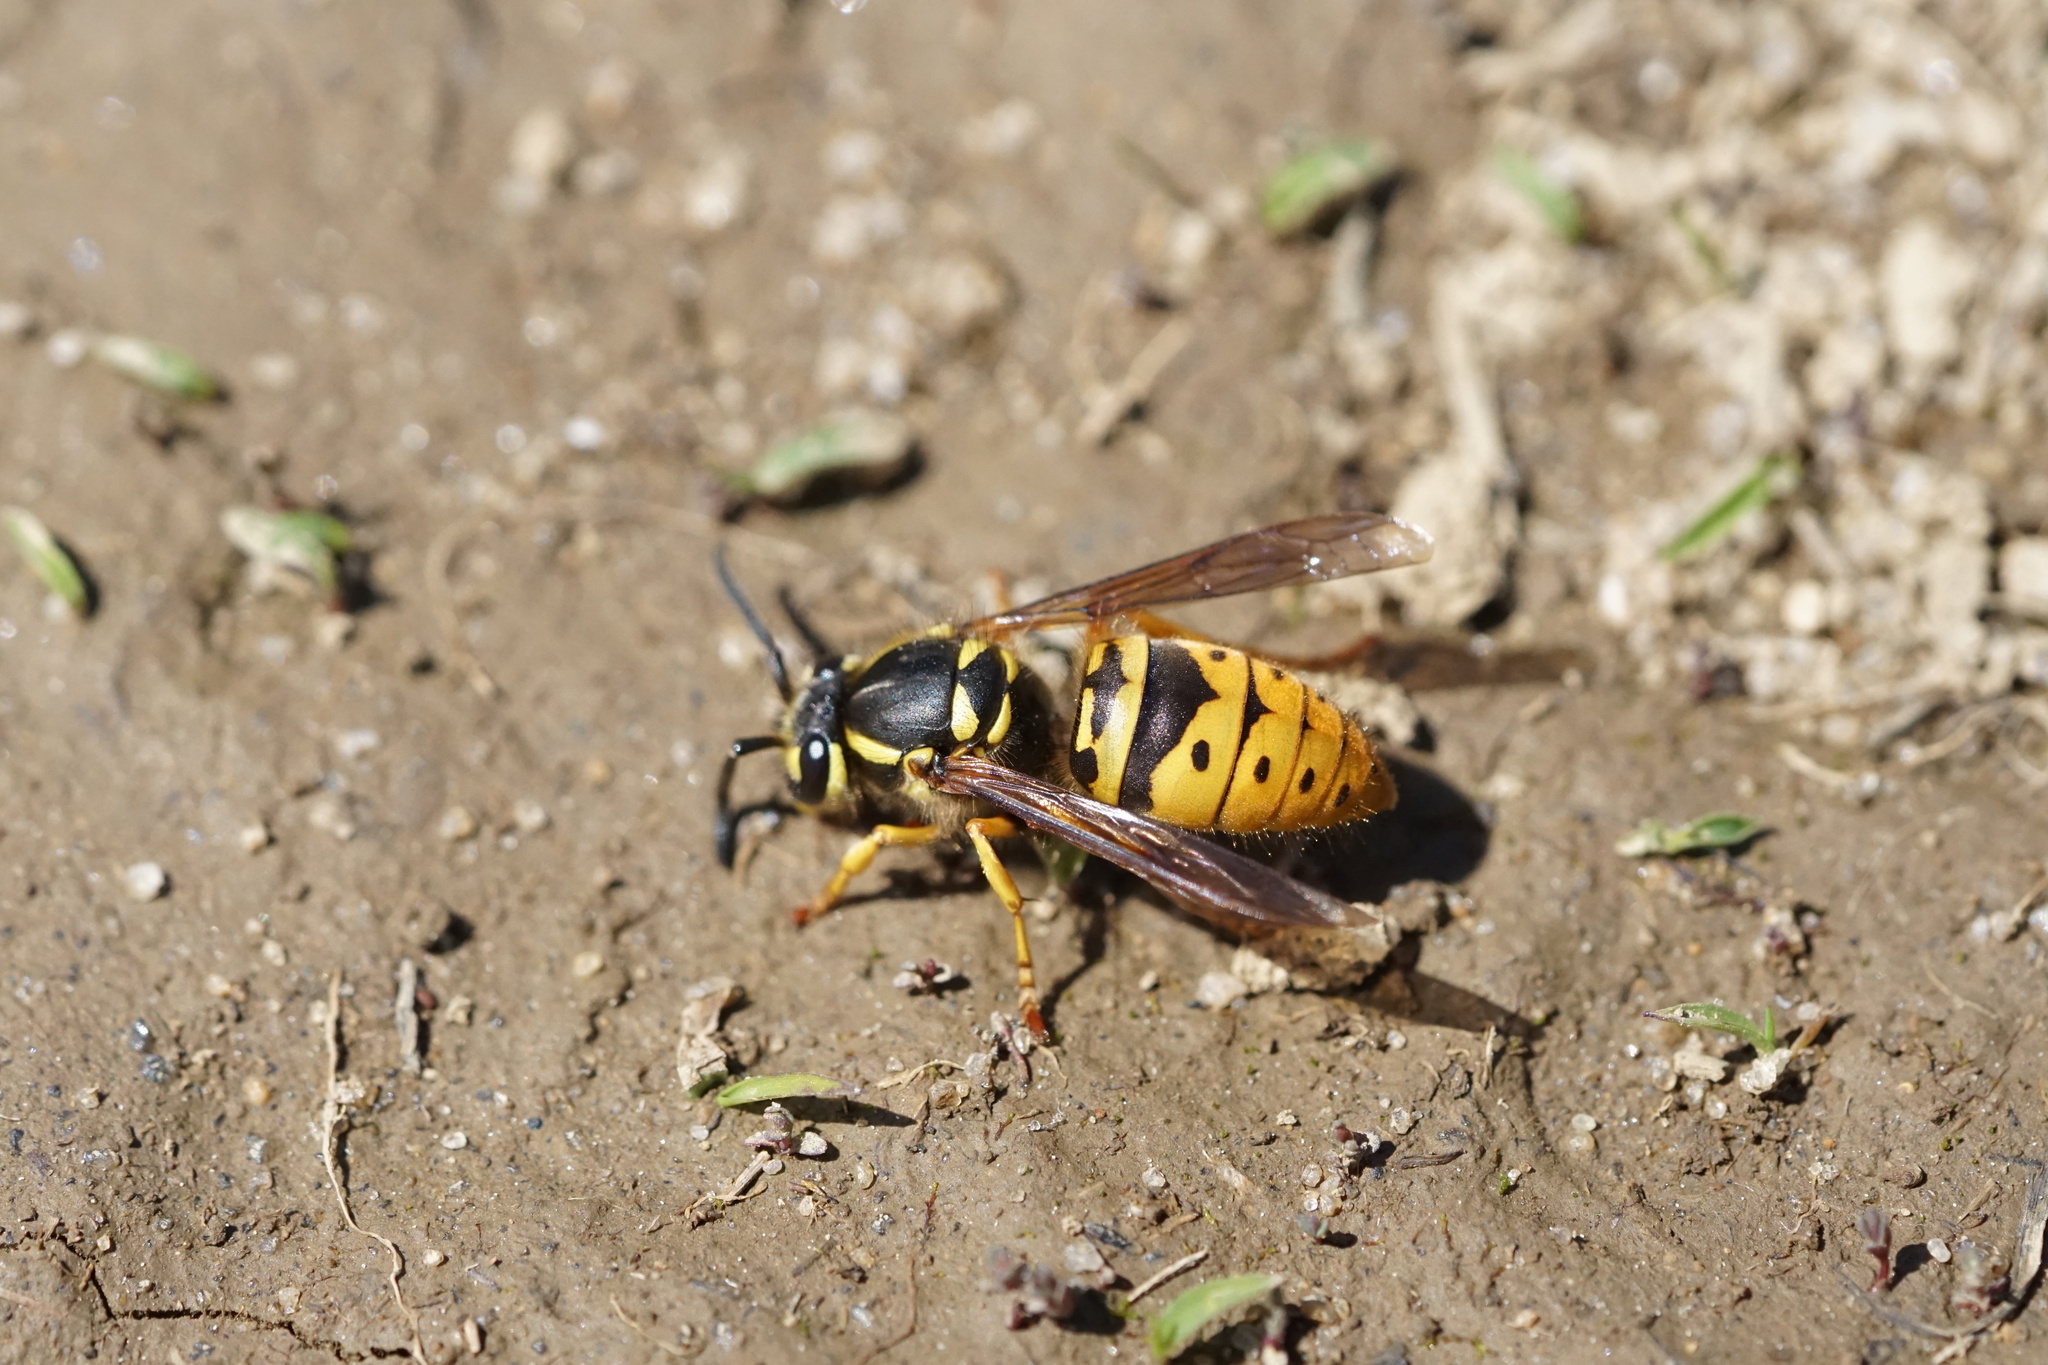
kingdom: Animalia
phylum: Arthropoda
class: Insecta
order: Hymenoptera
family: Vespidae
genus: Vespula
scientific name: Vespula maculifrons
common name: Eastern yellowjacket
